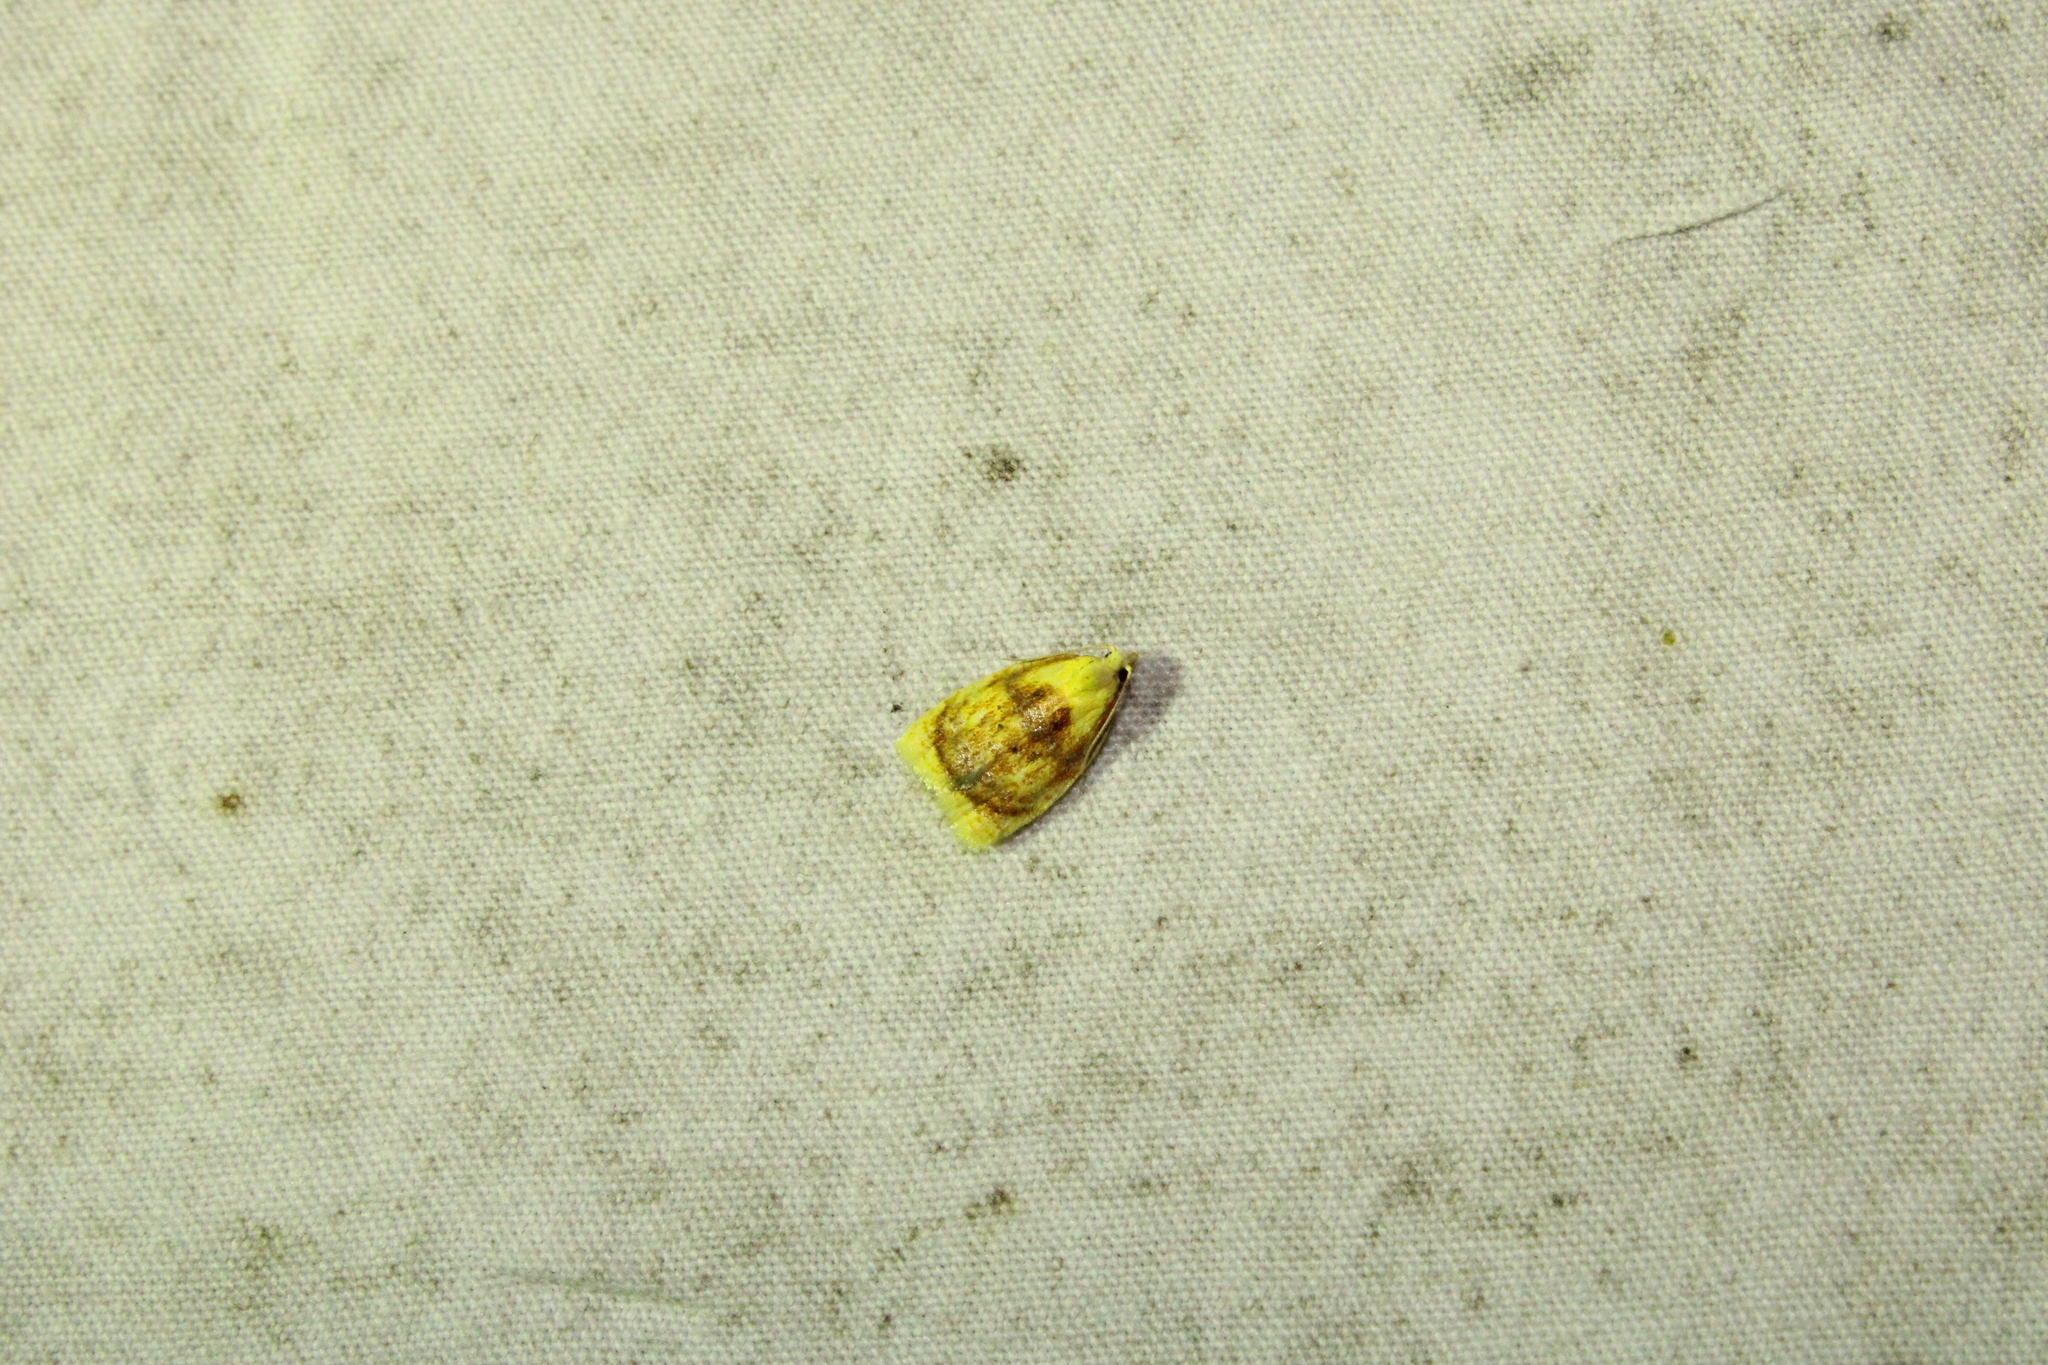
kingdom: Animalia
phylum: Arthropoda
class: Insecta
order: Lepidoptera
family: Tortricidae
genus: Acleris
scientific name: Acleris curvalana
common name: Blueberry leaftier moth
